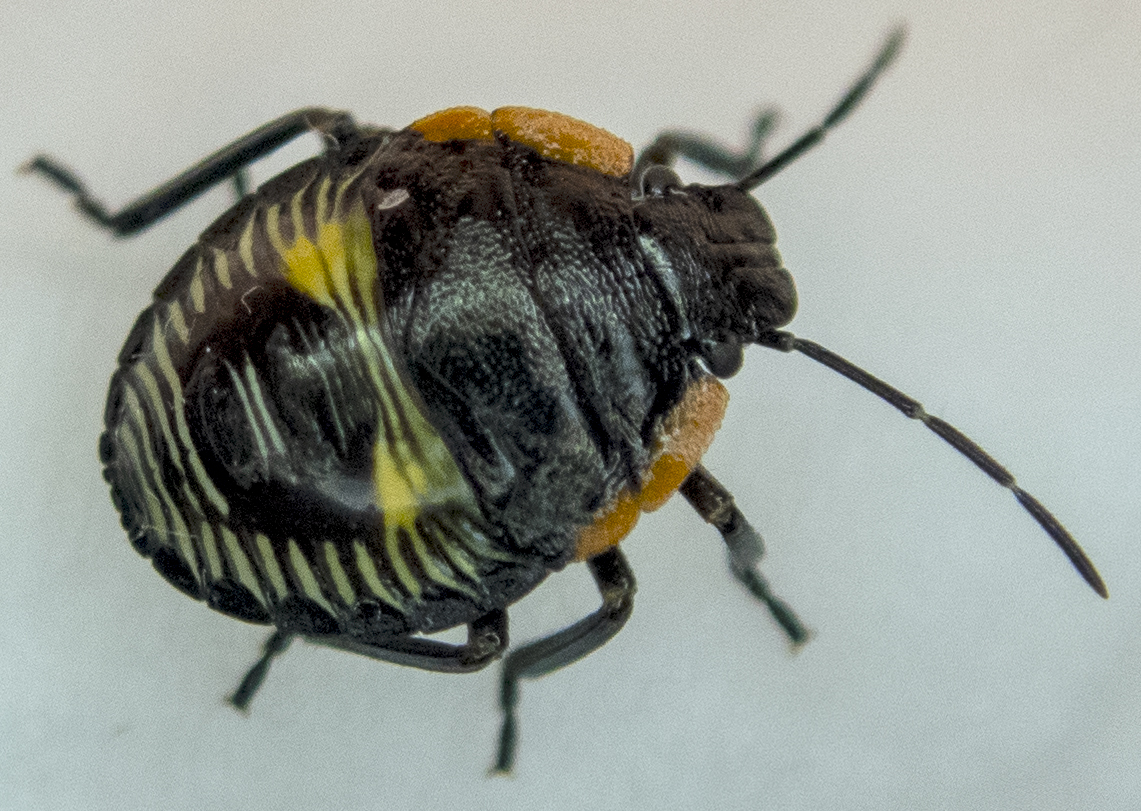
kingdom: Animalia
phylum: Arthropoda
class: Insecta
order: Hemiptera
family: Pentatomidae
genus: Chinavia
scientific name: Chinavia hilaris
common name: Green stink bug
